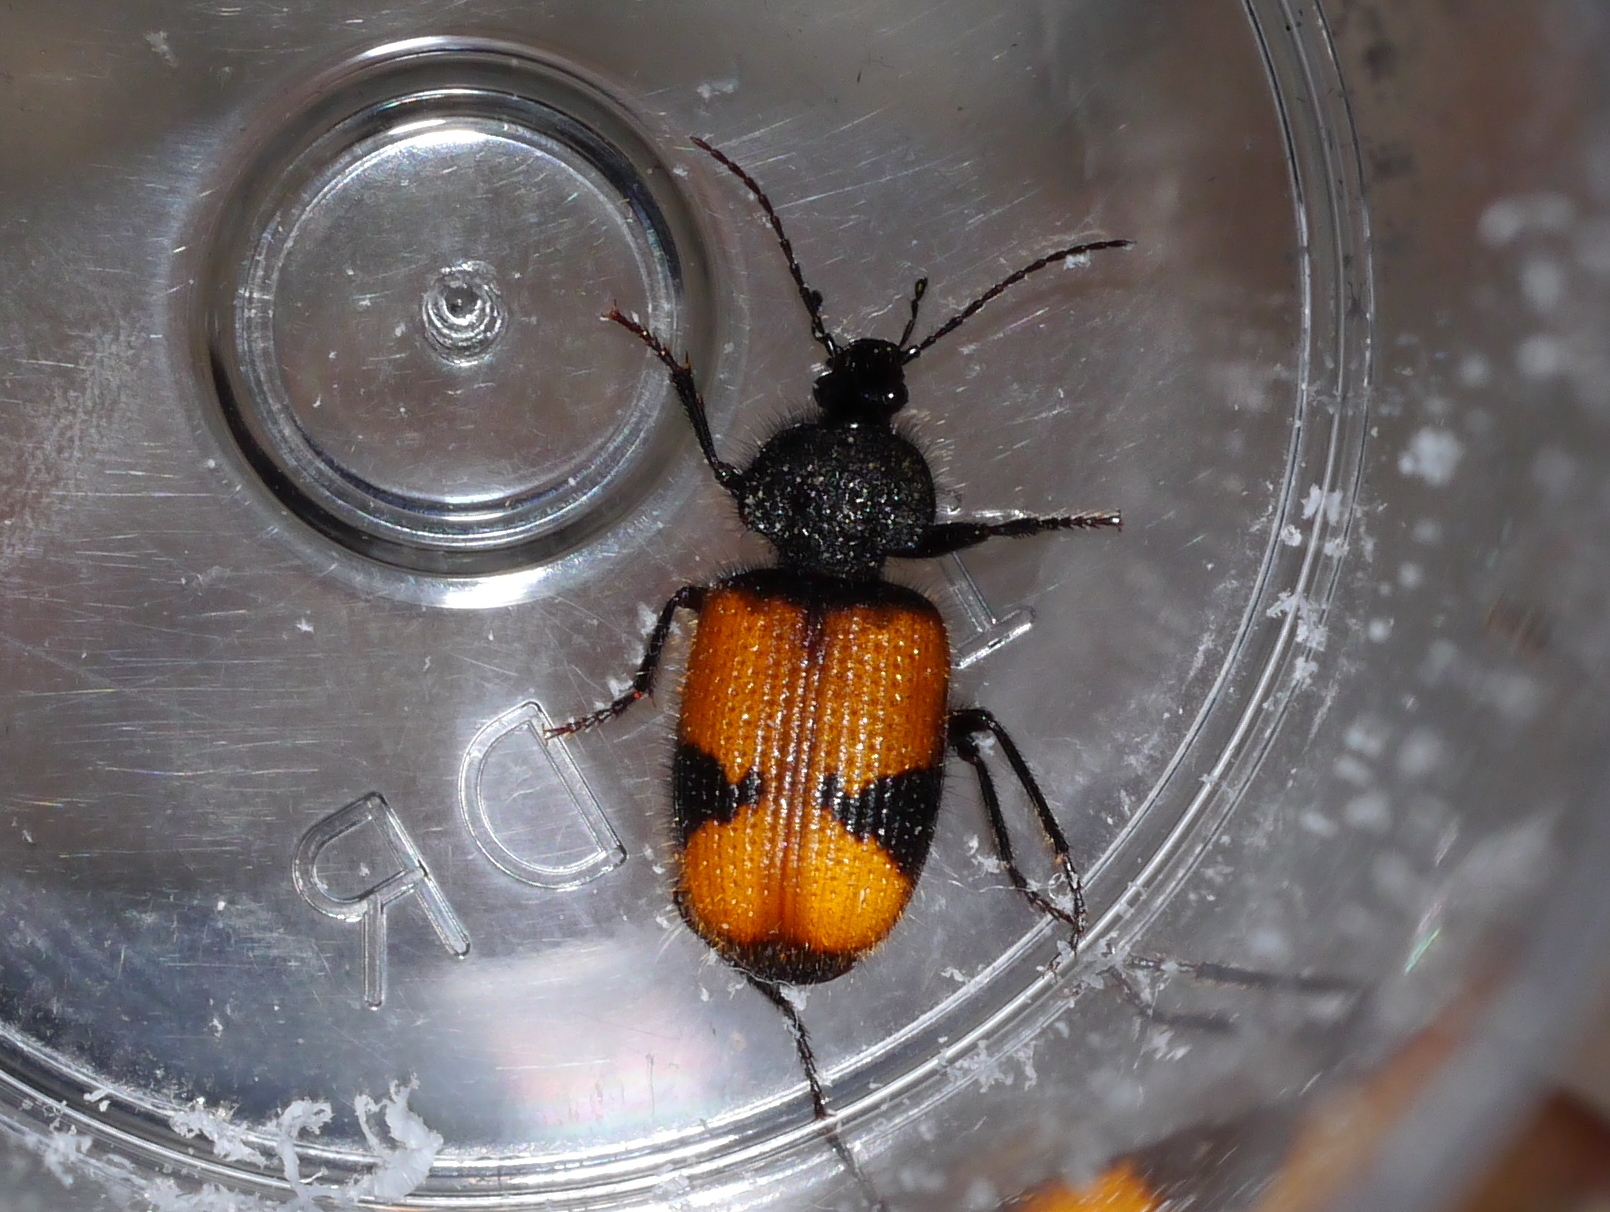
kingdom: Animalia
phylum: Arthropoda
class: Insecta
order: Coleoptera
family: Carabidae
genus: Panagaeus
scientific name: Panagaeus sallei
